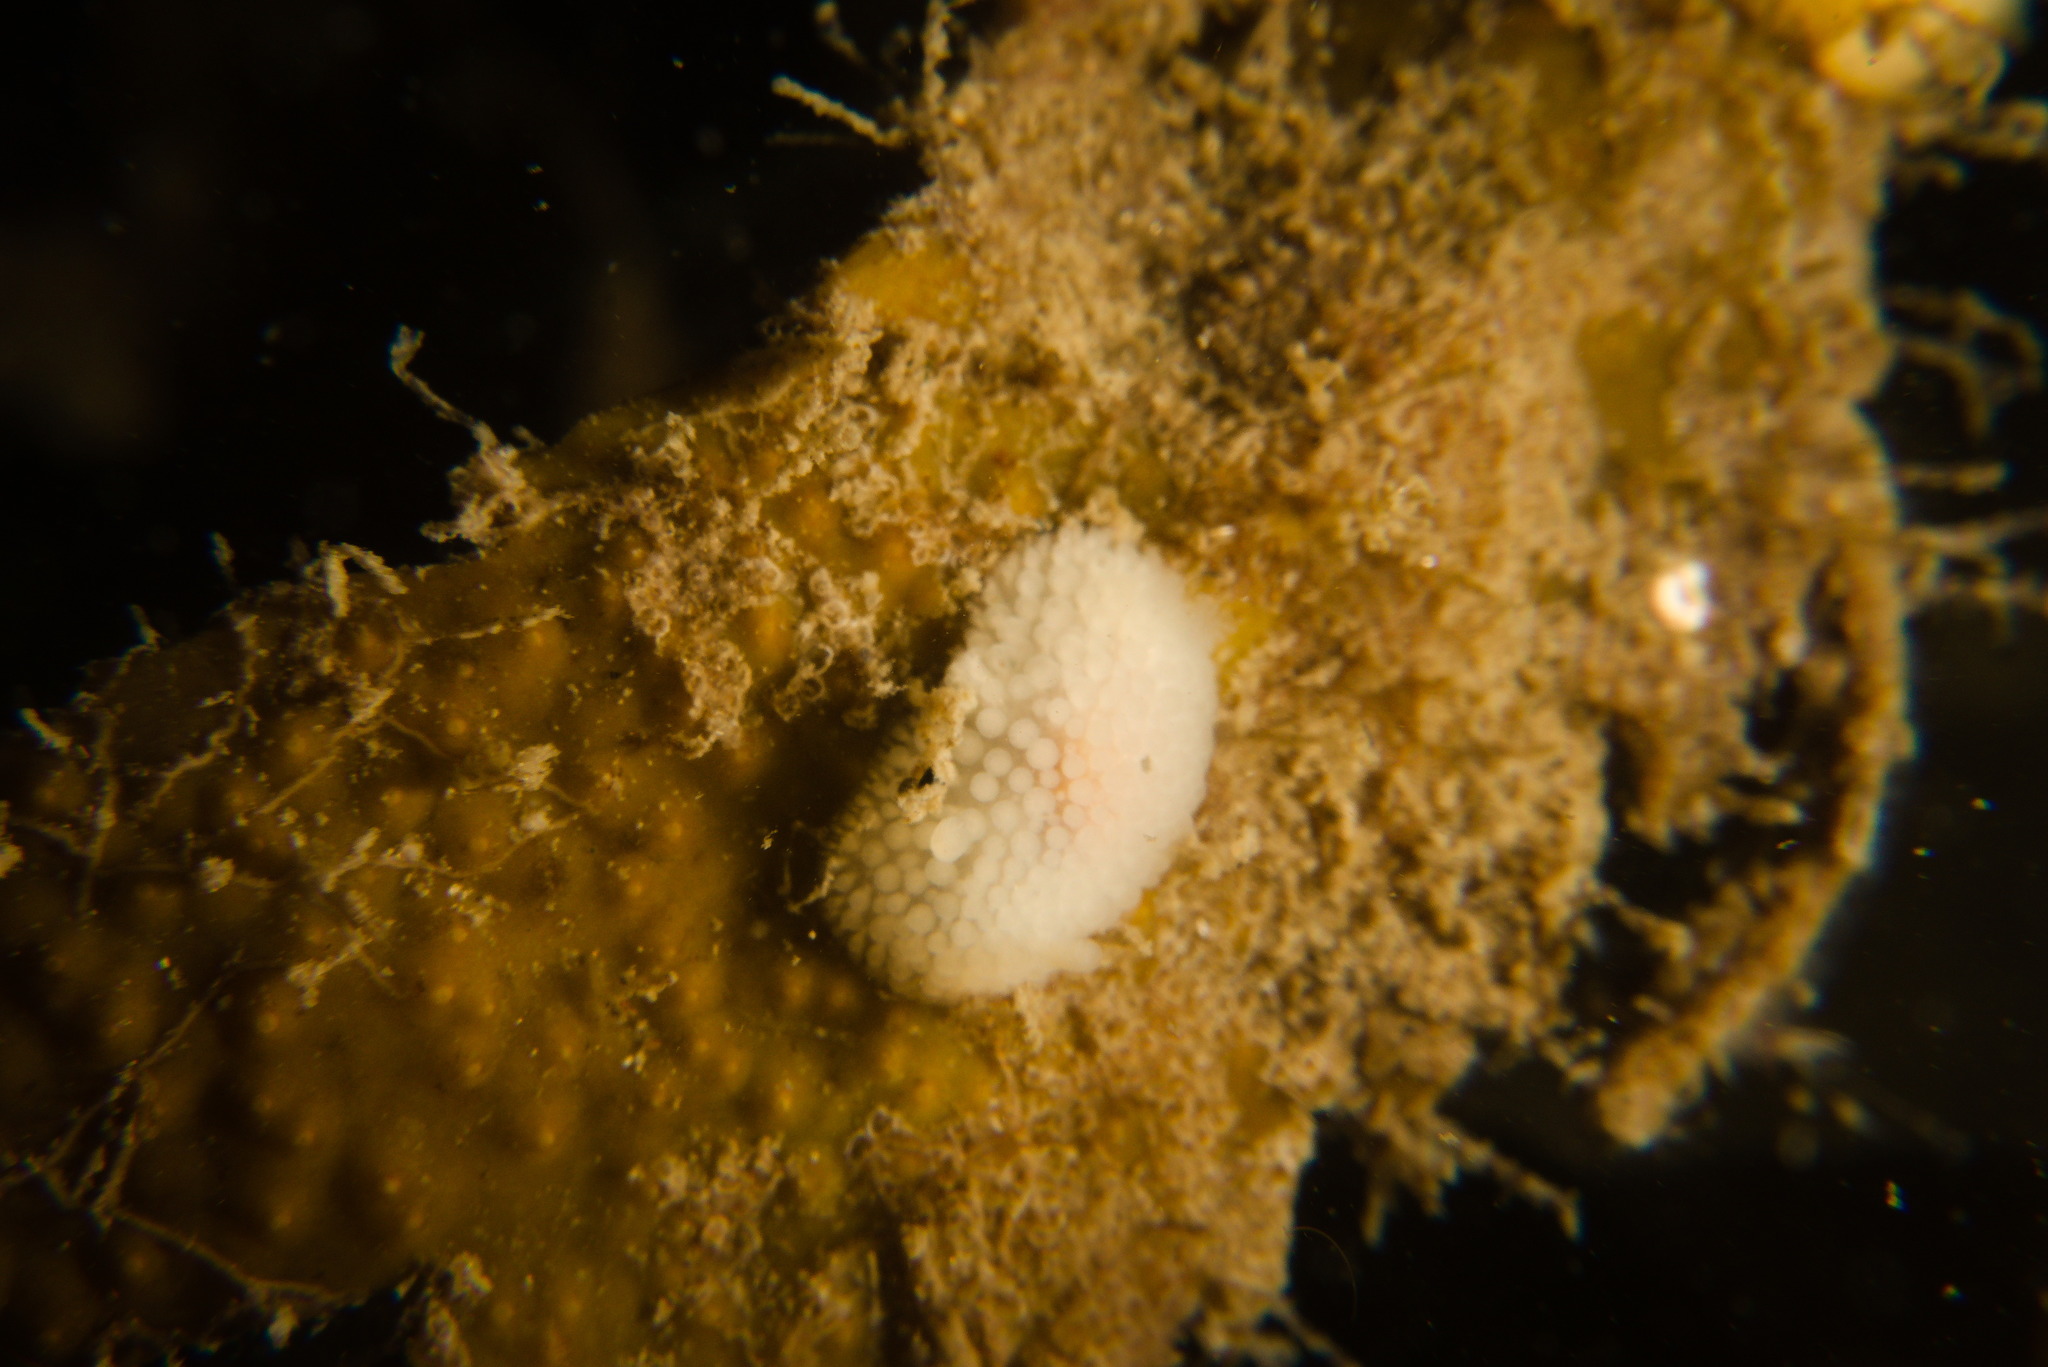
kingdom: Animalia
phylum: Mollusca
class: Gastropoda
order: Nudibranchia
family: Onchidorididae
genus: Onchidoris
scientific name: Onchidoris muricata
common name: Rough doris
